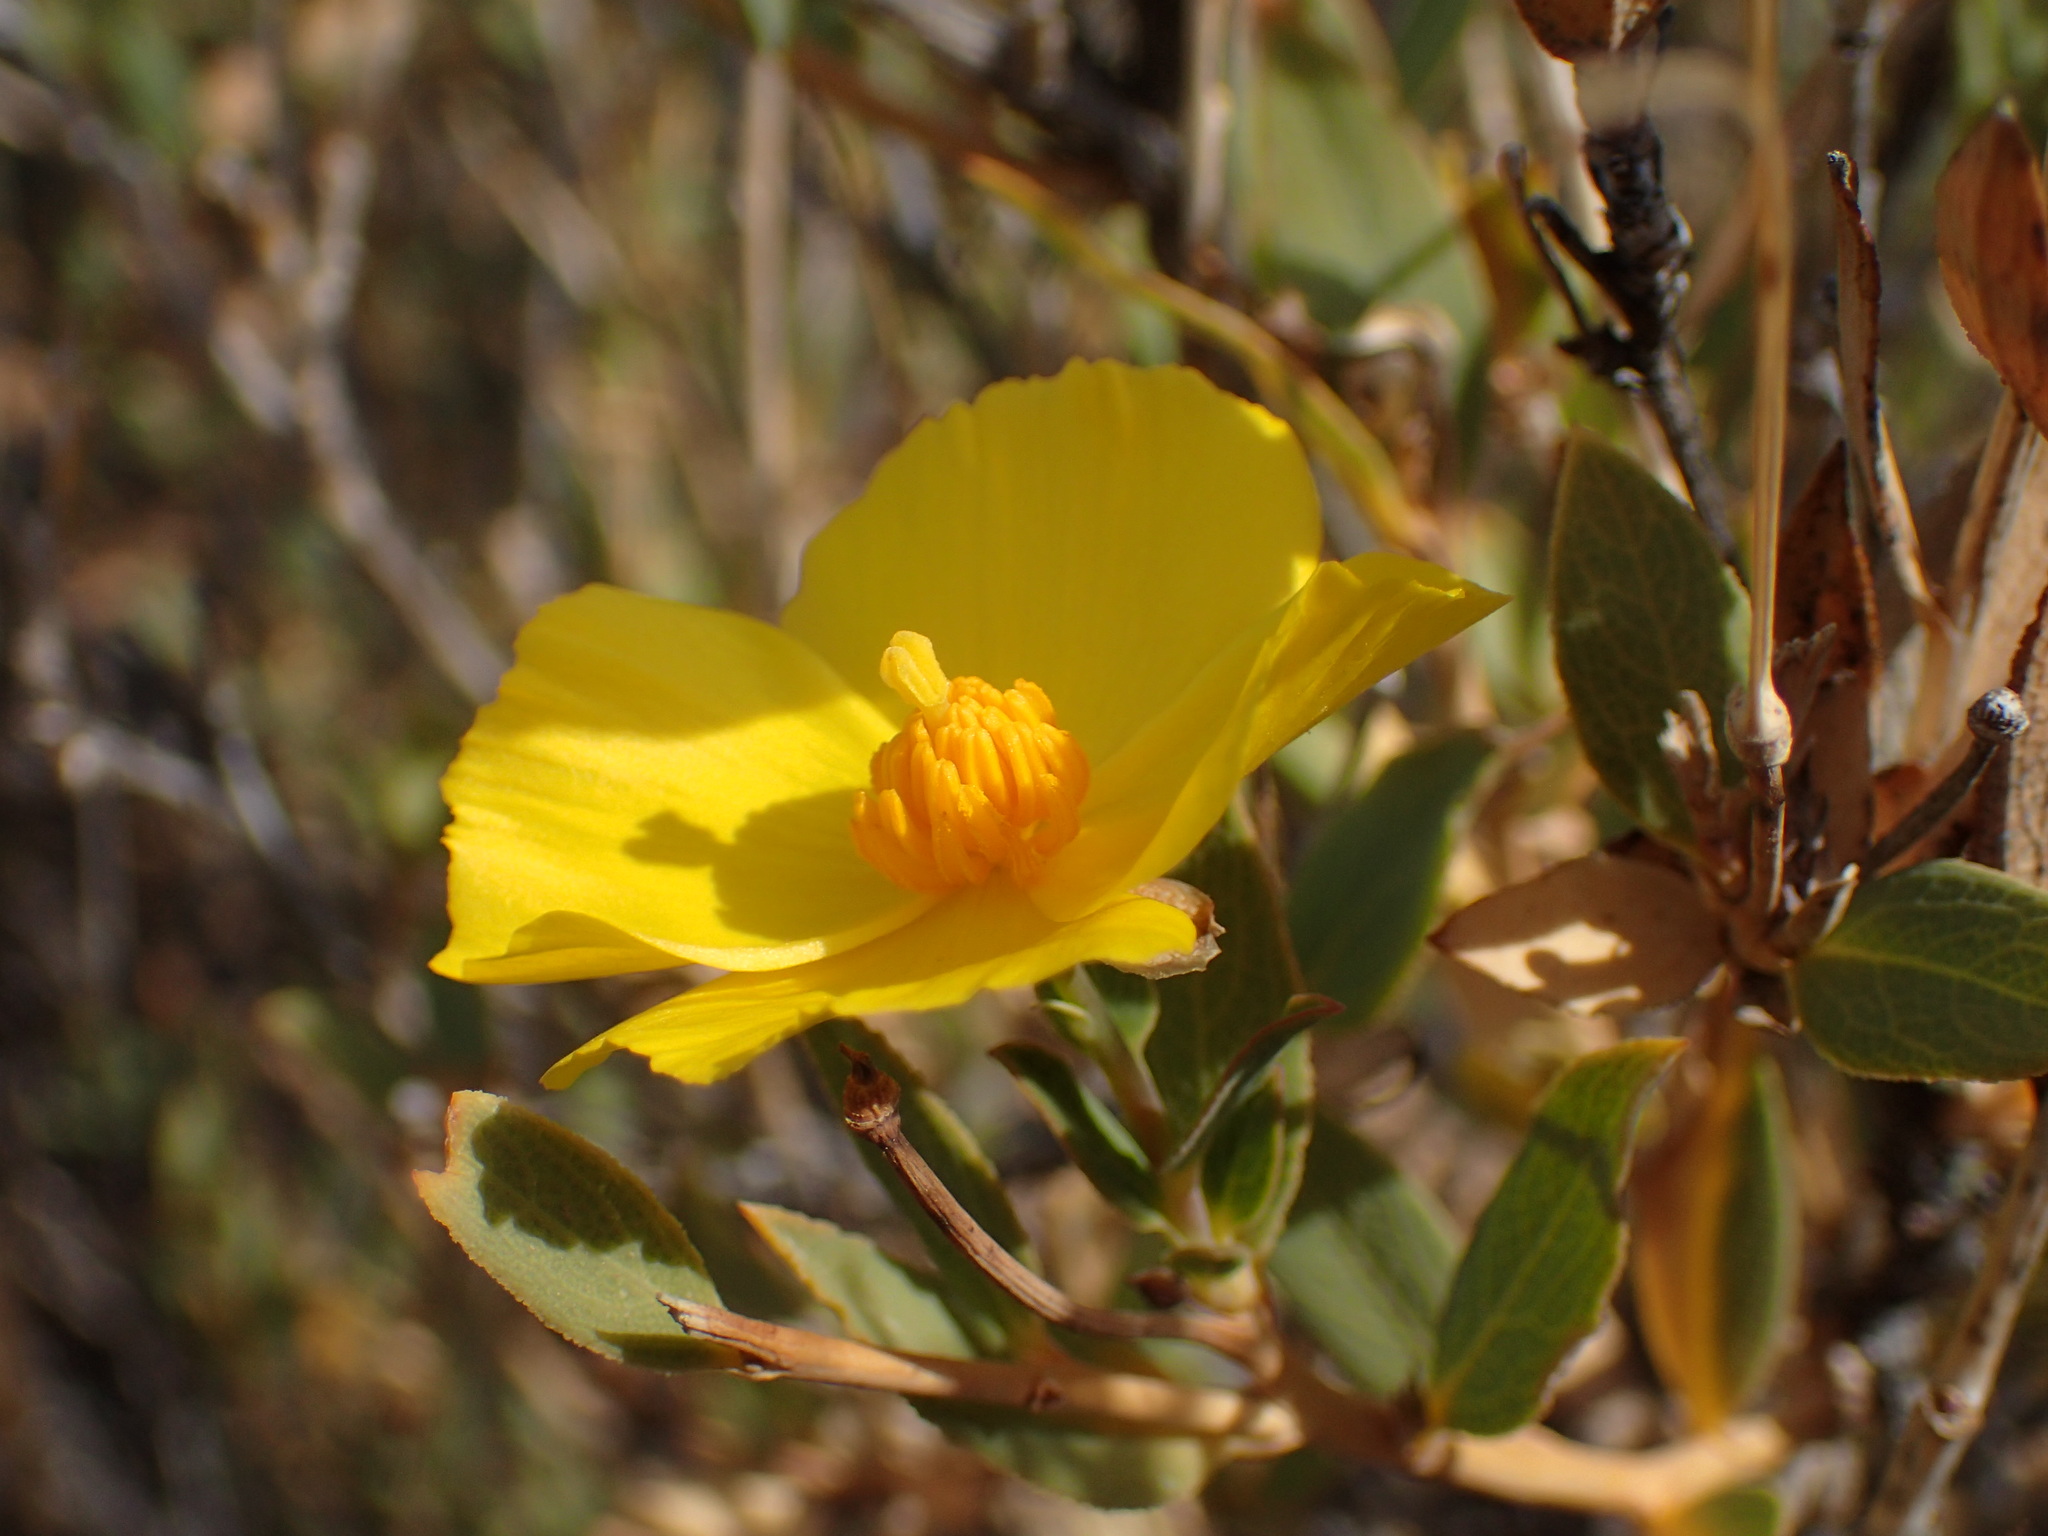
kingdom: Plantae
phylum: Tracheophyta
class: Magnoliopsida
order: Ranunculales
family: Papaveraceae
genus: Dendromecon
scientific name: Dendromecon rigida
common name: Tree poppy
